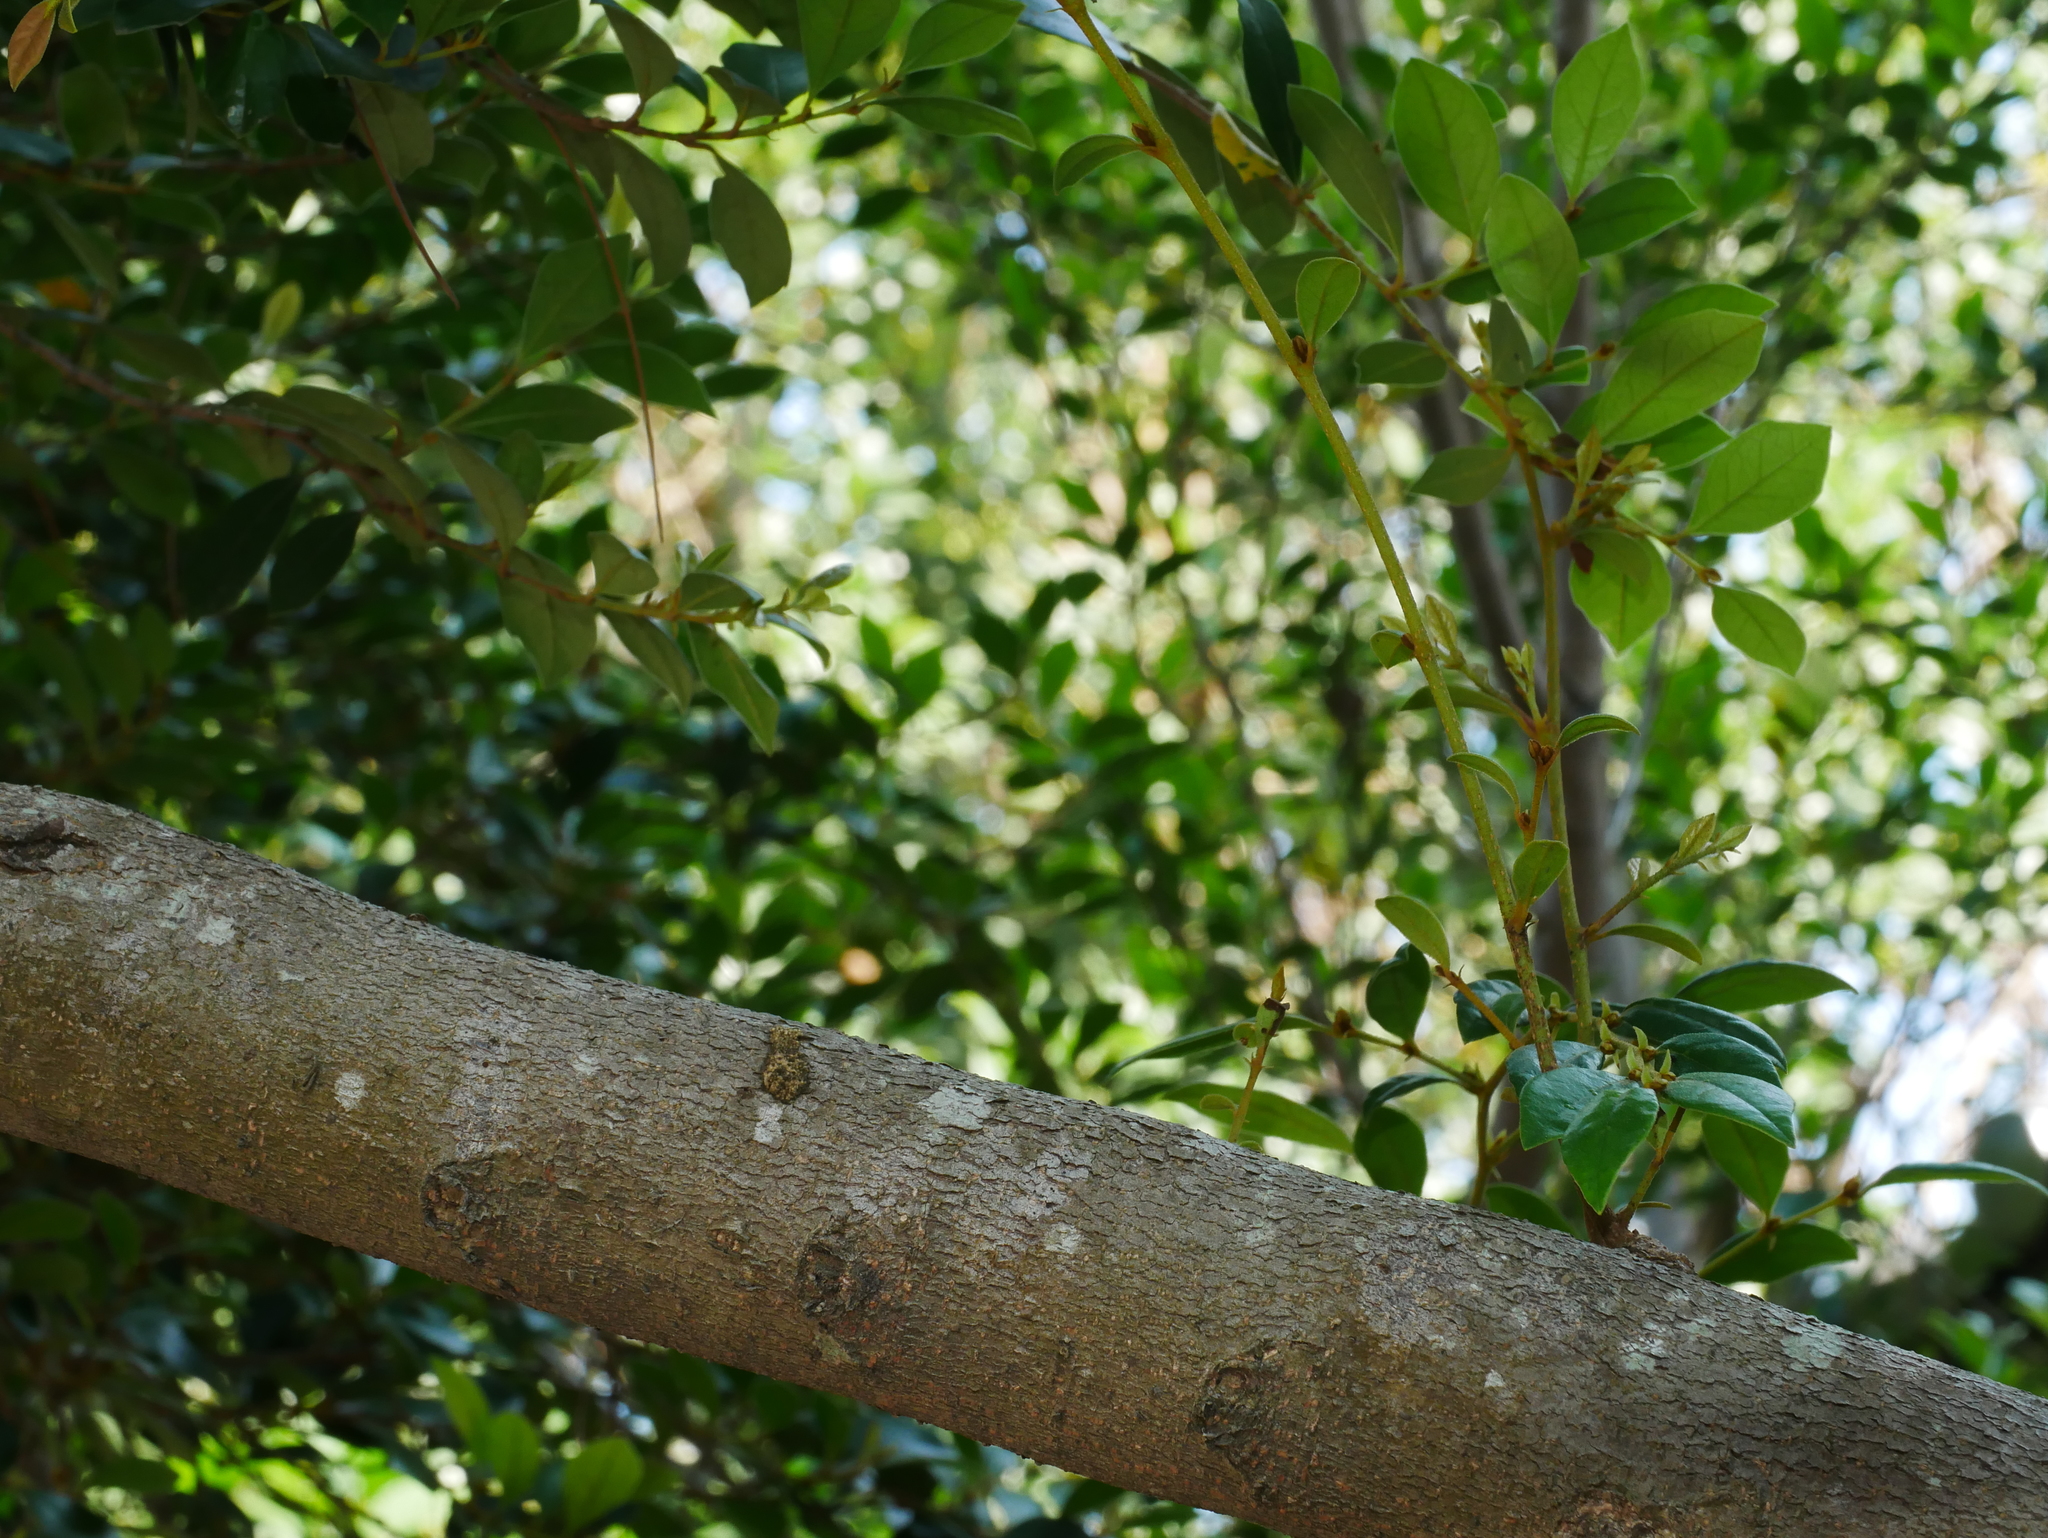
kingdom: Plantae
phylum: Tracheophyta
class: Magnoliopsida
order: Saxifragales
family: Hamamelidaceae
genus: Distylium
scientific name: Distylium gracile
